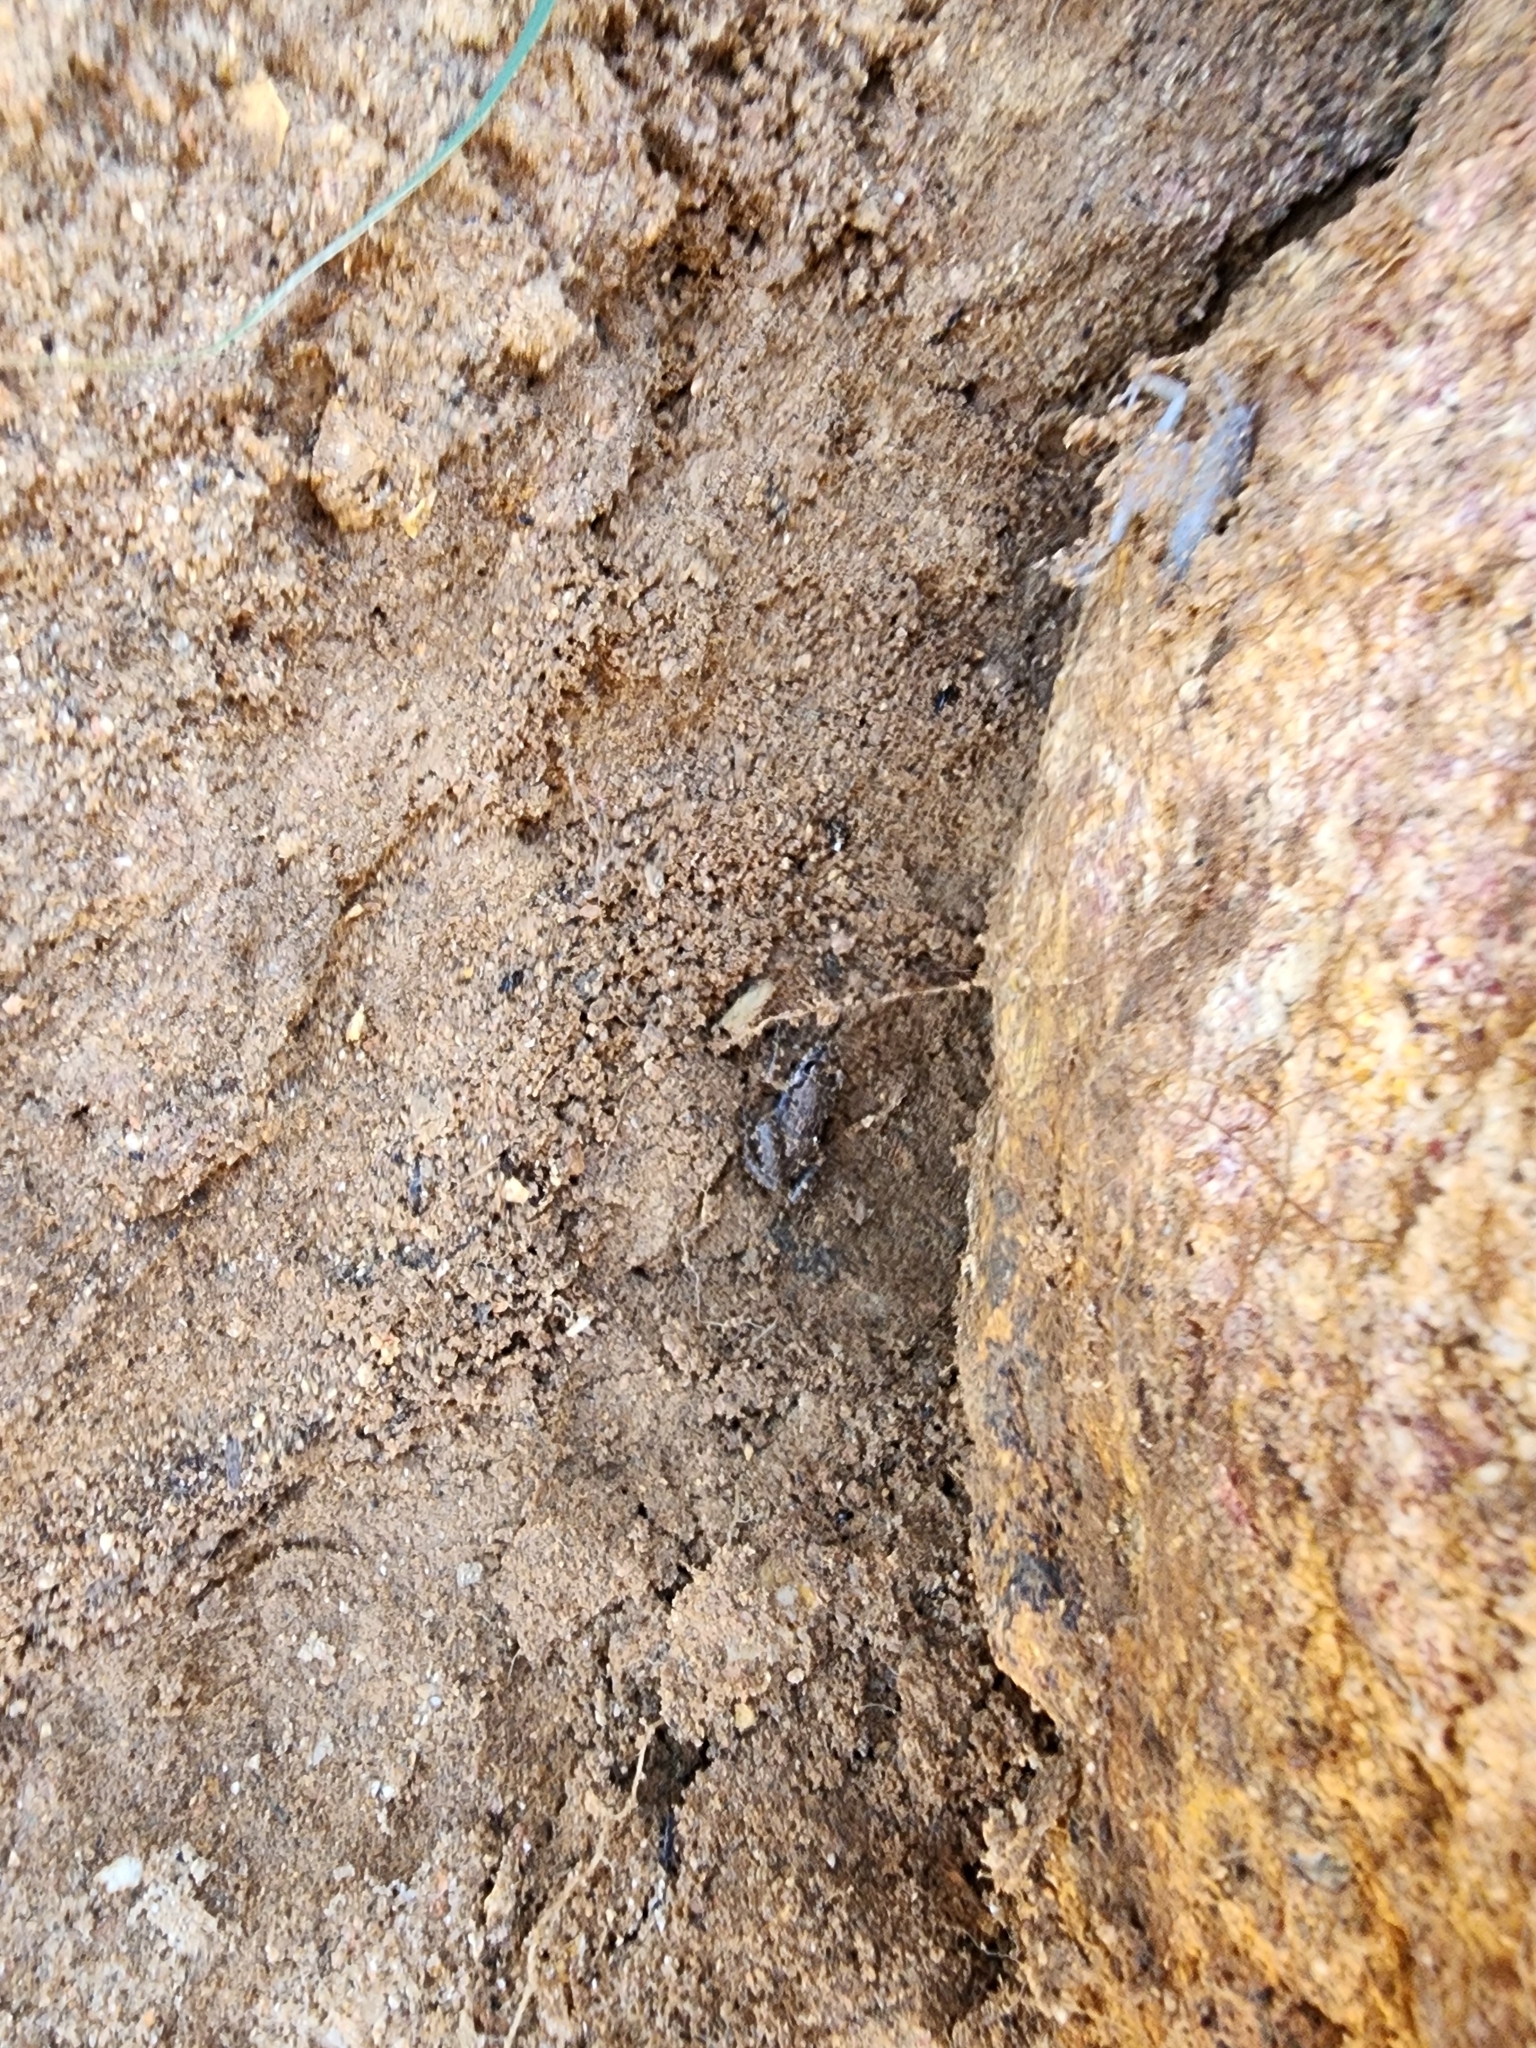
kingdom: Animalia
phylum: Chordata
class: Amphibia
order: Anura
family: Eleutherodactylidae
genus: Eleutherodactylus
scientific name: Eleutherodactylus planirostris
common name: Greenhouse frog
